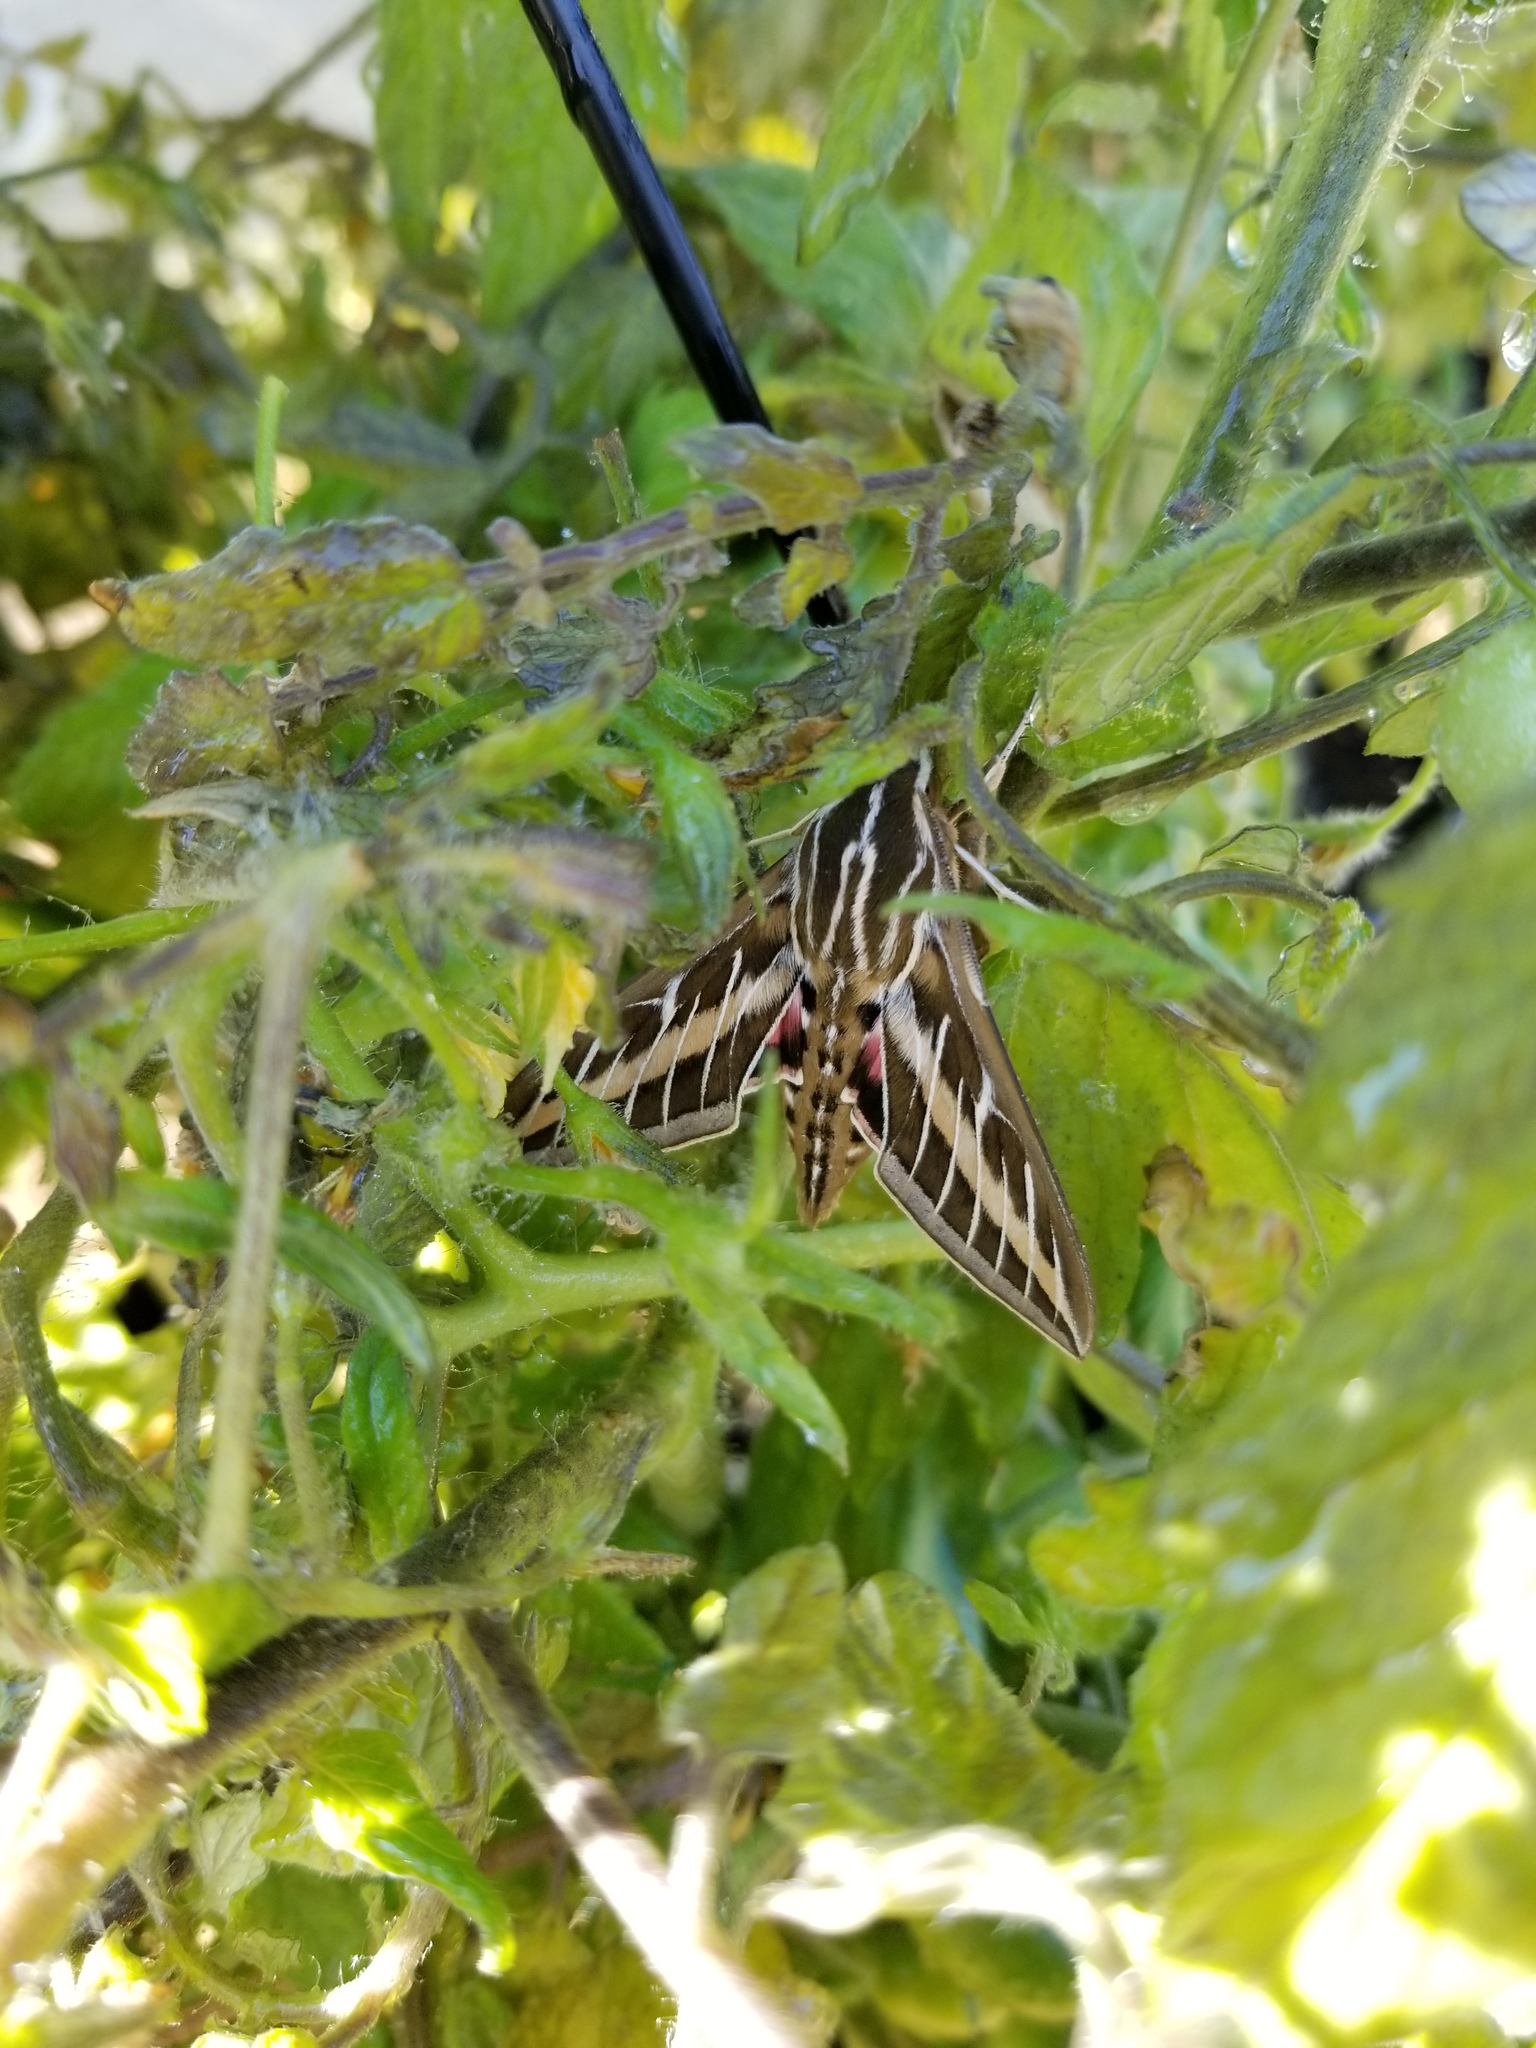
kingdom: Animalia
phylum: Arthropoda
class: Insecta
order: Lepidoptera
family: Sphingidae
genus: Hyles
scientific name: Hyles lineata
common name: White-lined sphinx
